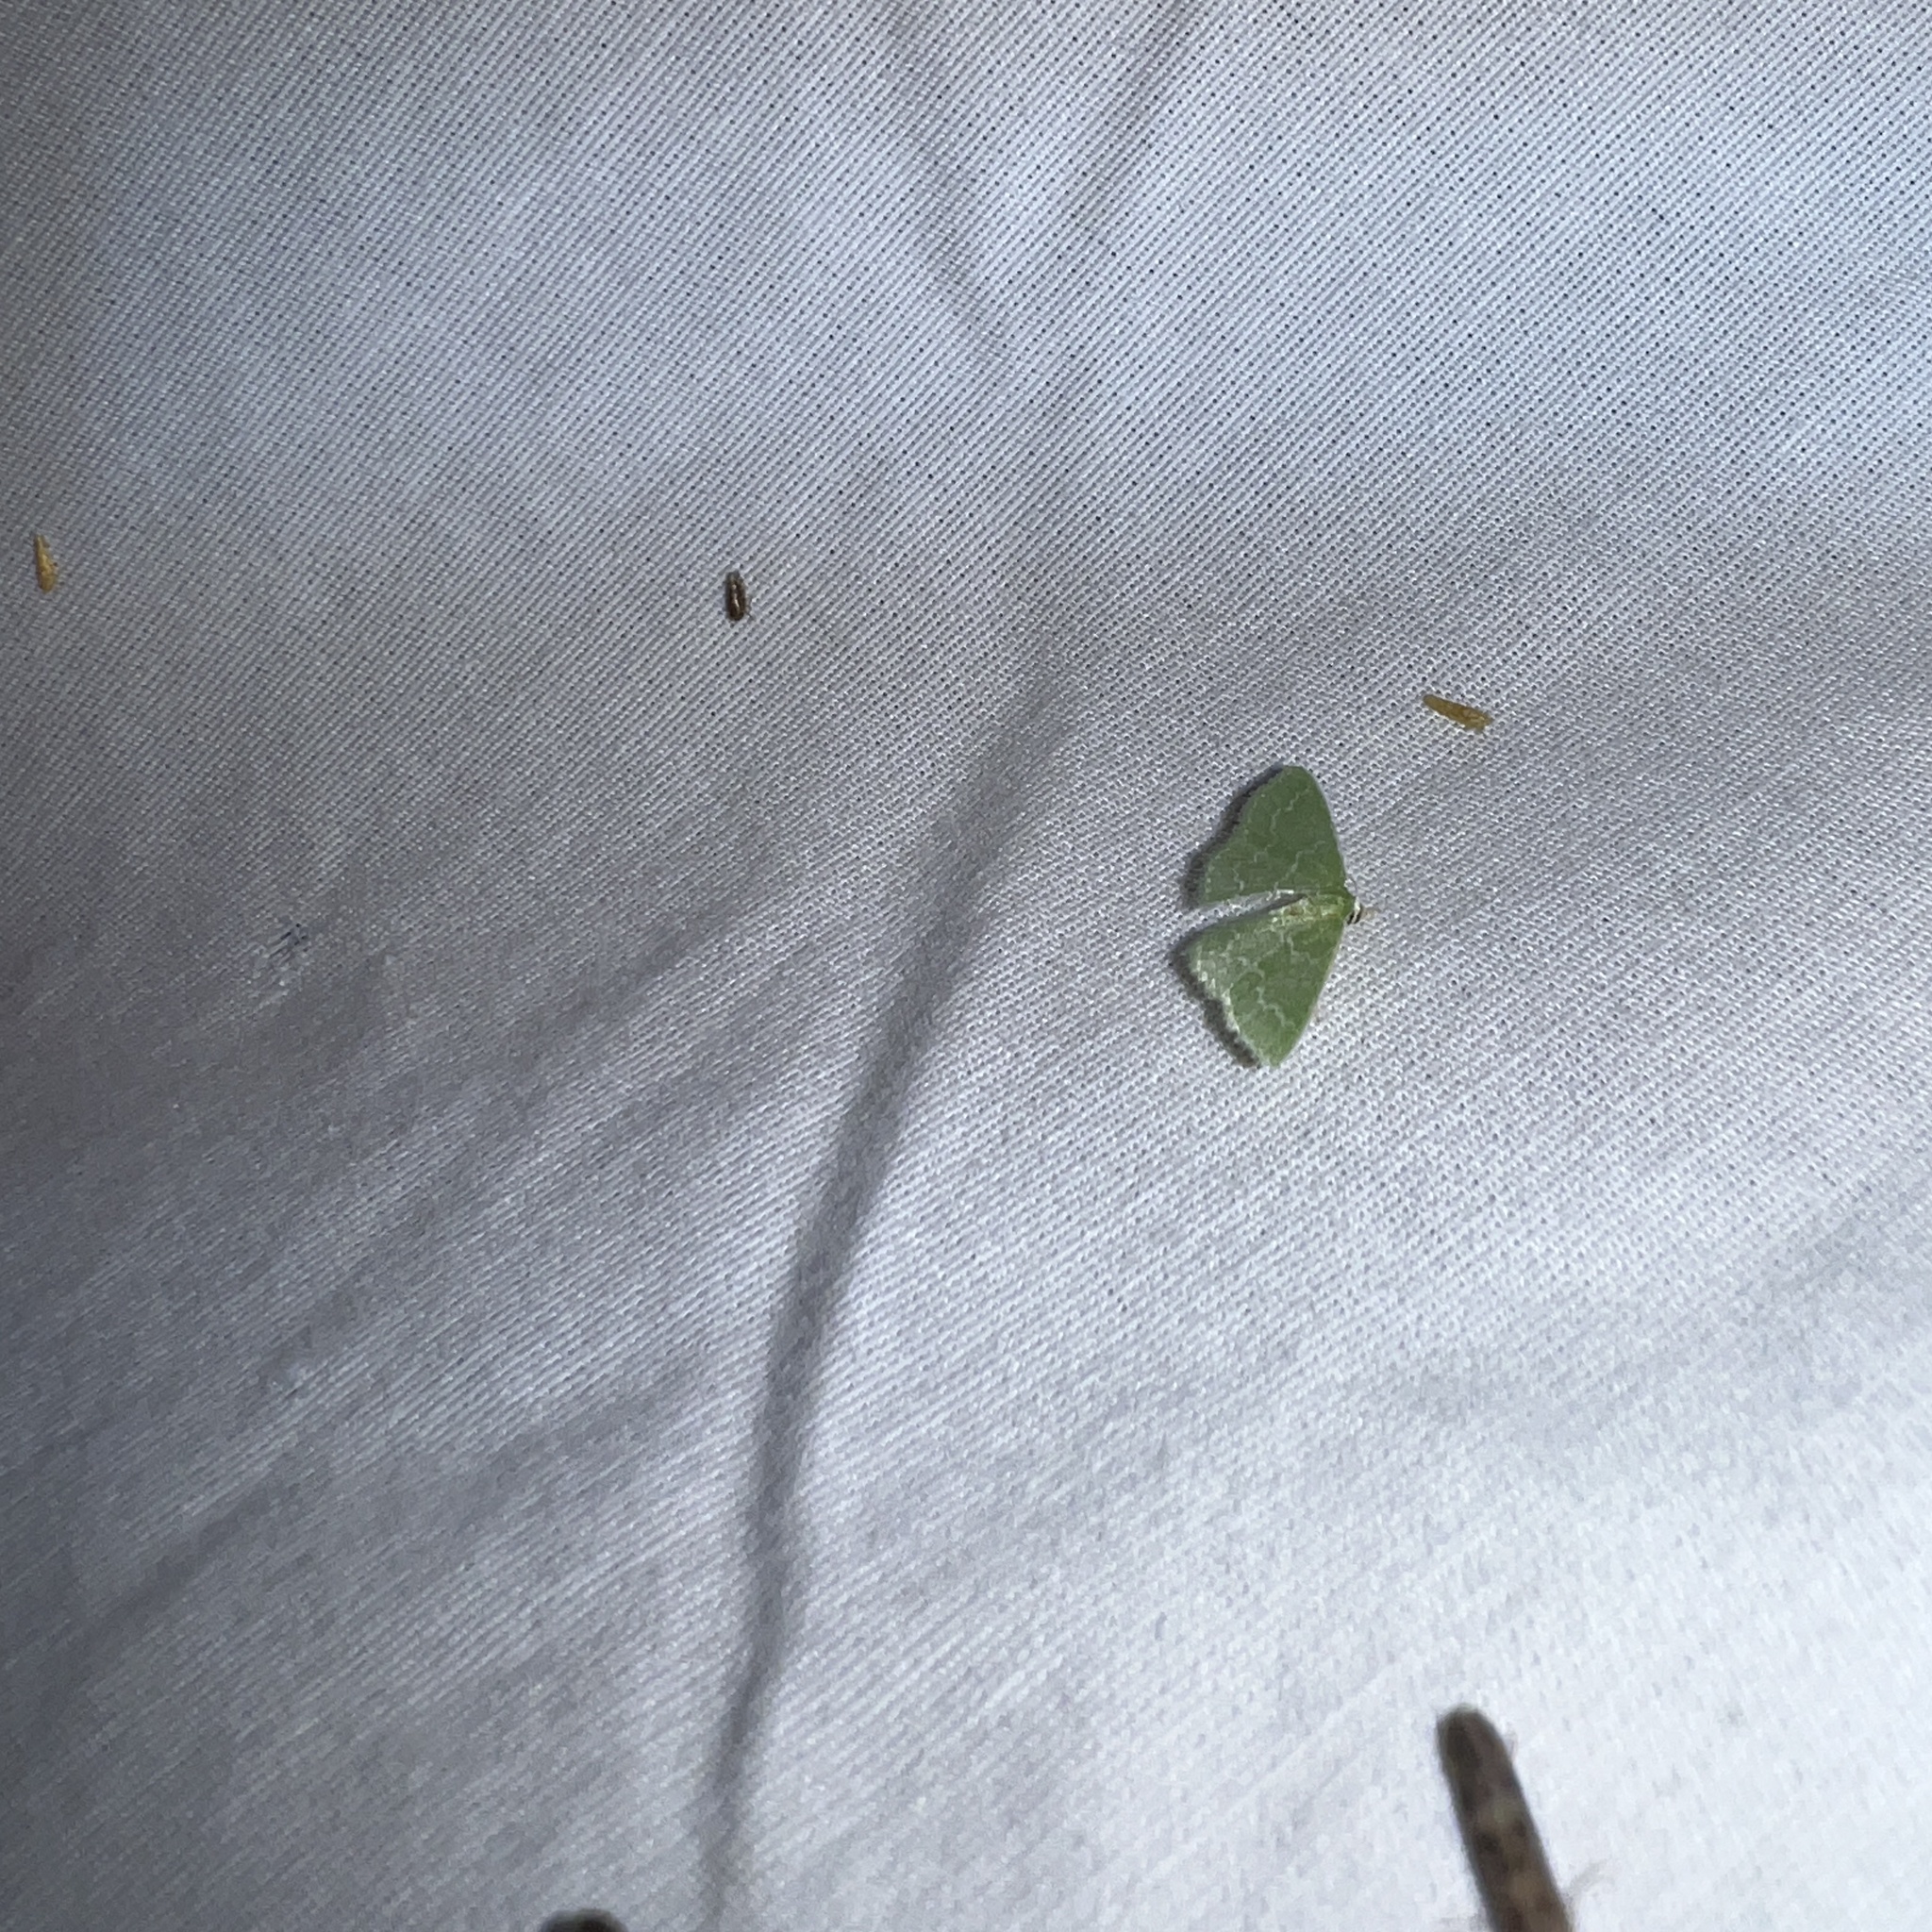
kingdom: Animalia
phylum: Arthropoda
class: Insecta
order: Lepidoptera
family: Geometridae
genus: Synchlora
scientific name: Synchlora aerata
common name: Wavy-lined emerald
